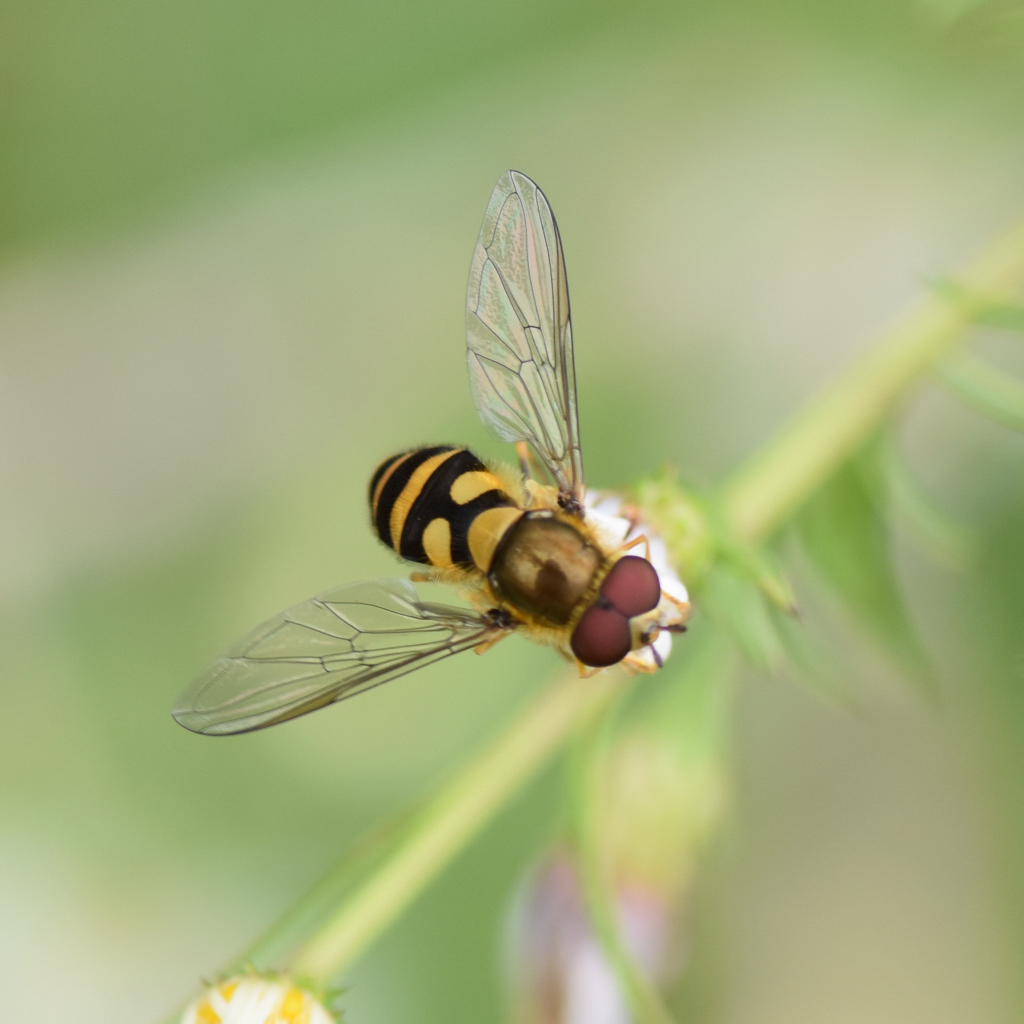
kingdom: Animalia
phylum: Arthropoda
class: Insecta
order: Diptera
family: Syrphidae
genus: Syrphus
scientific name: Syrphus
